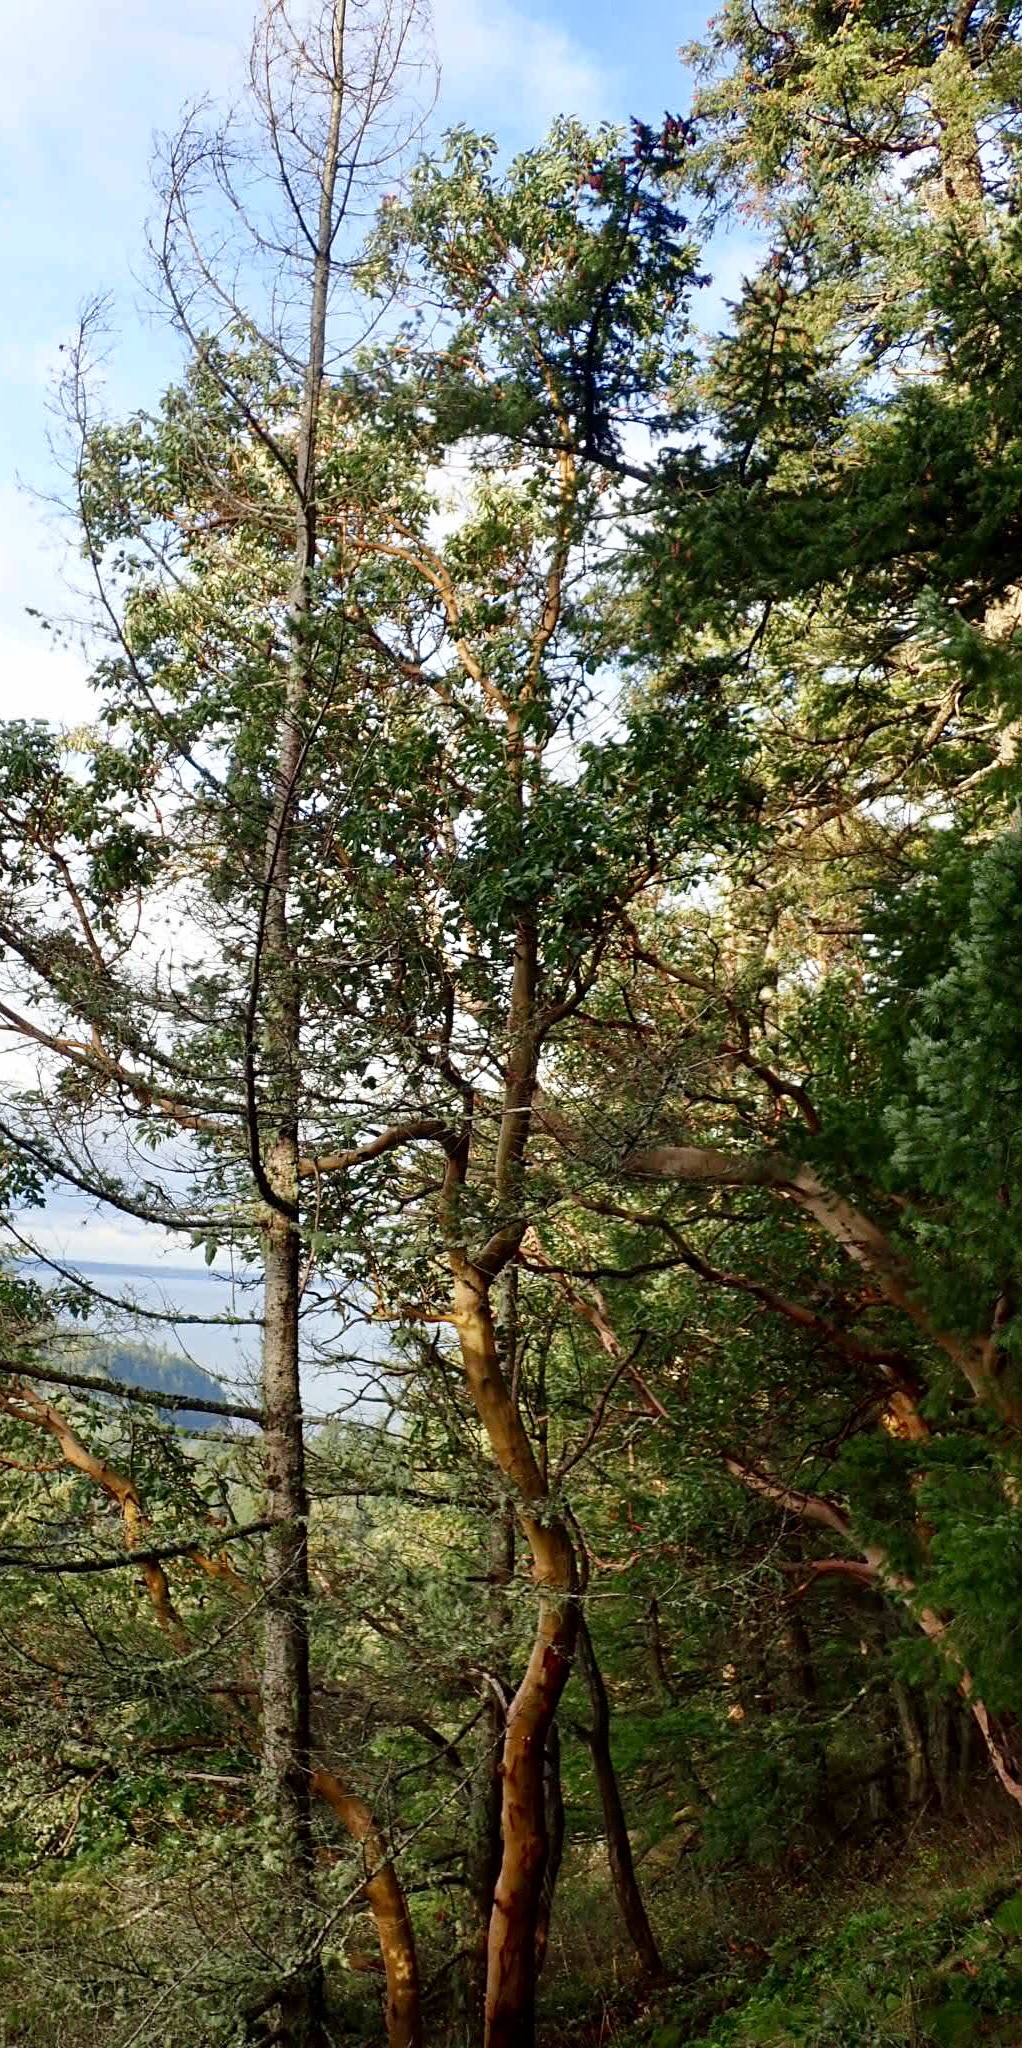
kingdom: Plantae
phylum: Tracheophyta
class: Magnoliopsida
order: Ericales
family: Ericaceae
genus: Arbutus
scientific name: Arbutus menziesii
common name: Pacific madrone
